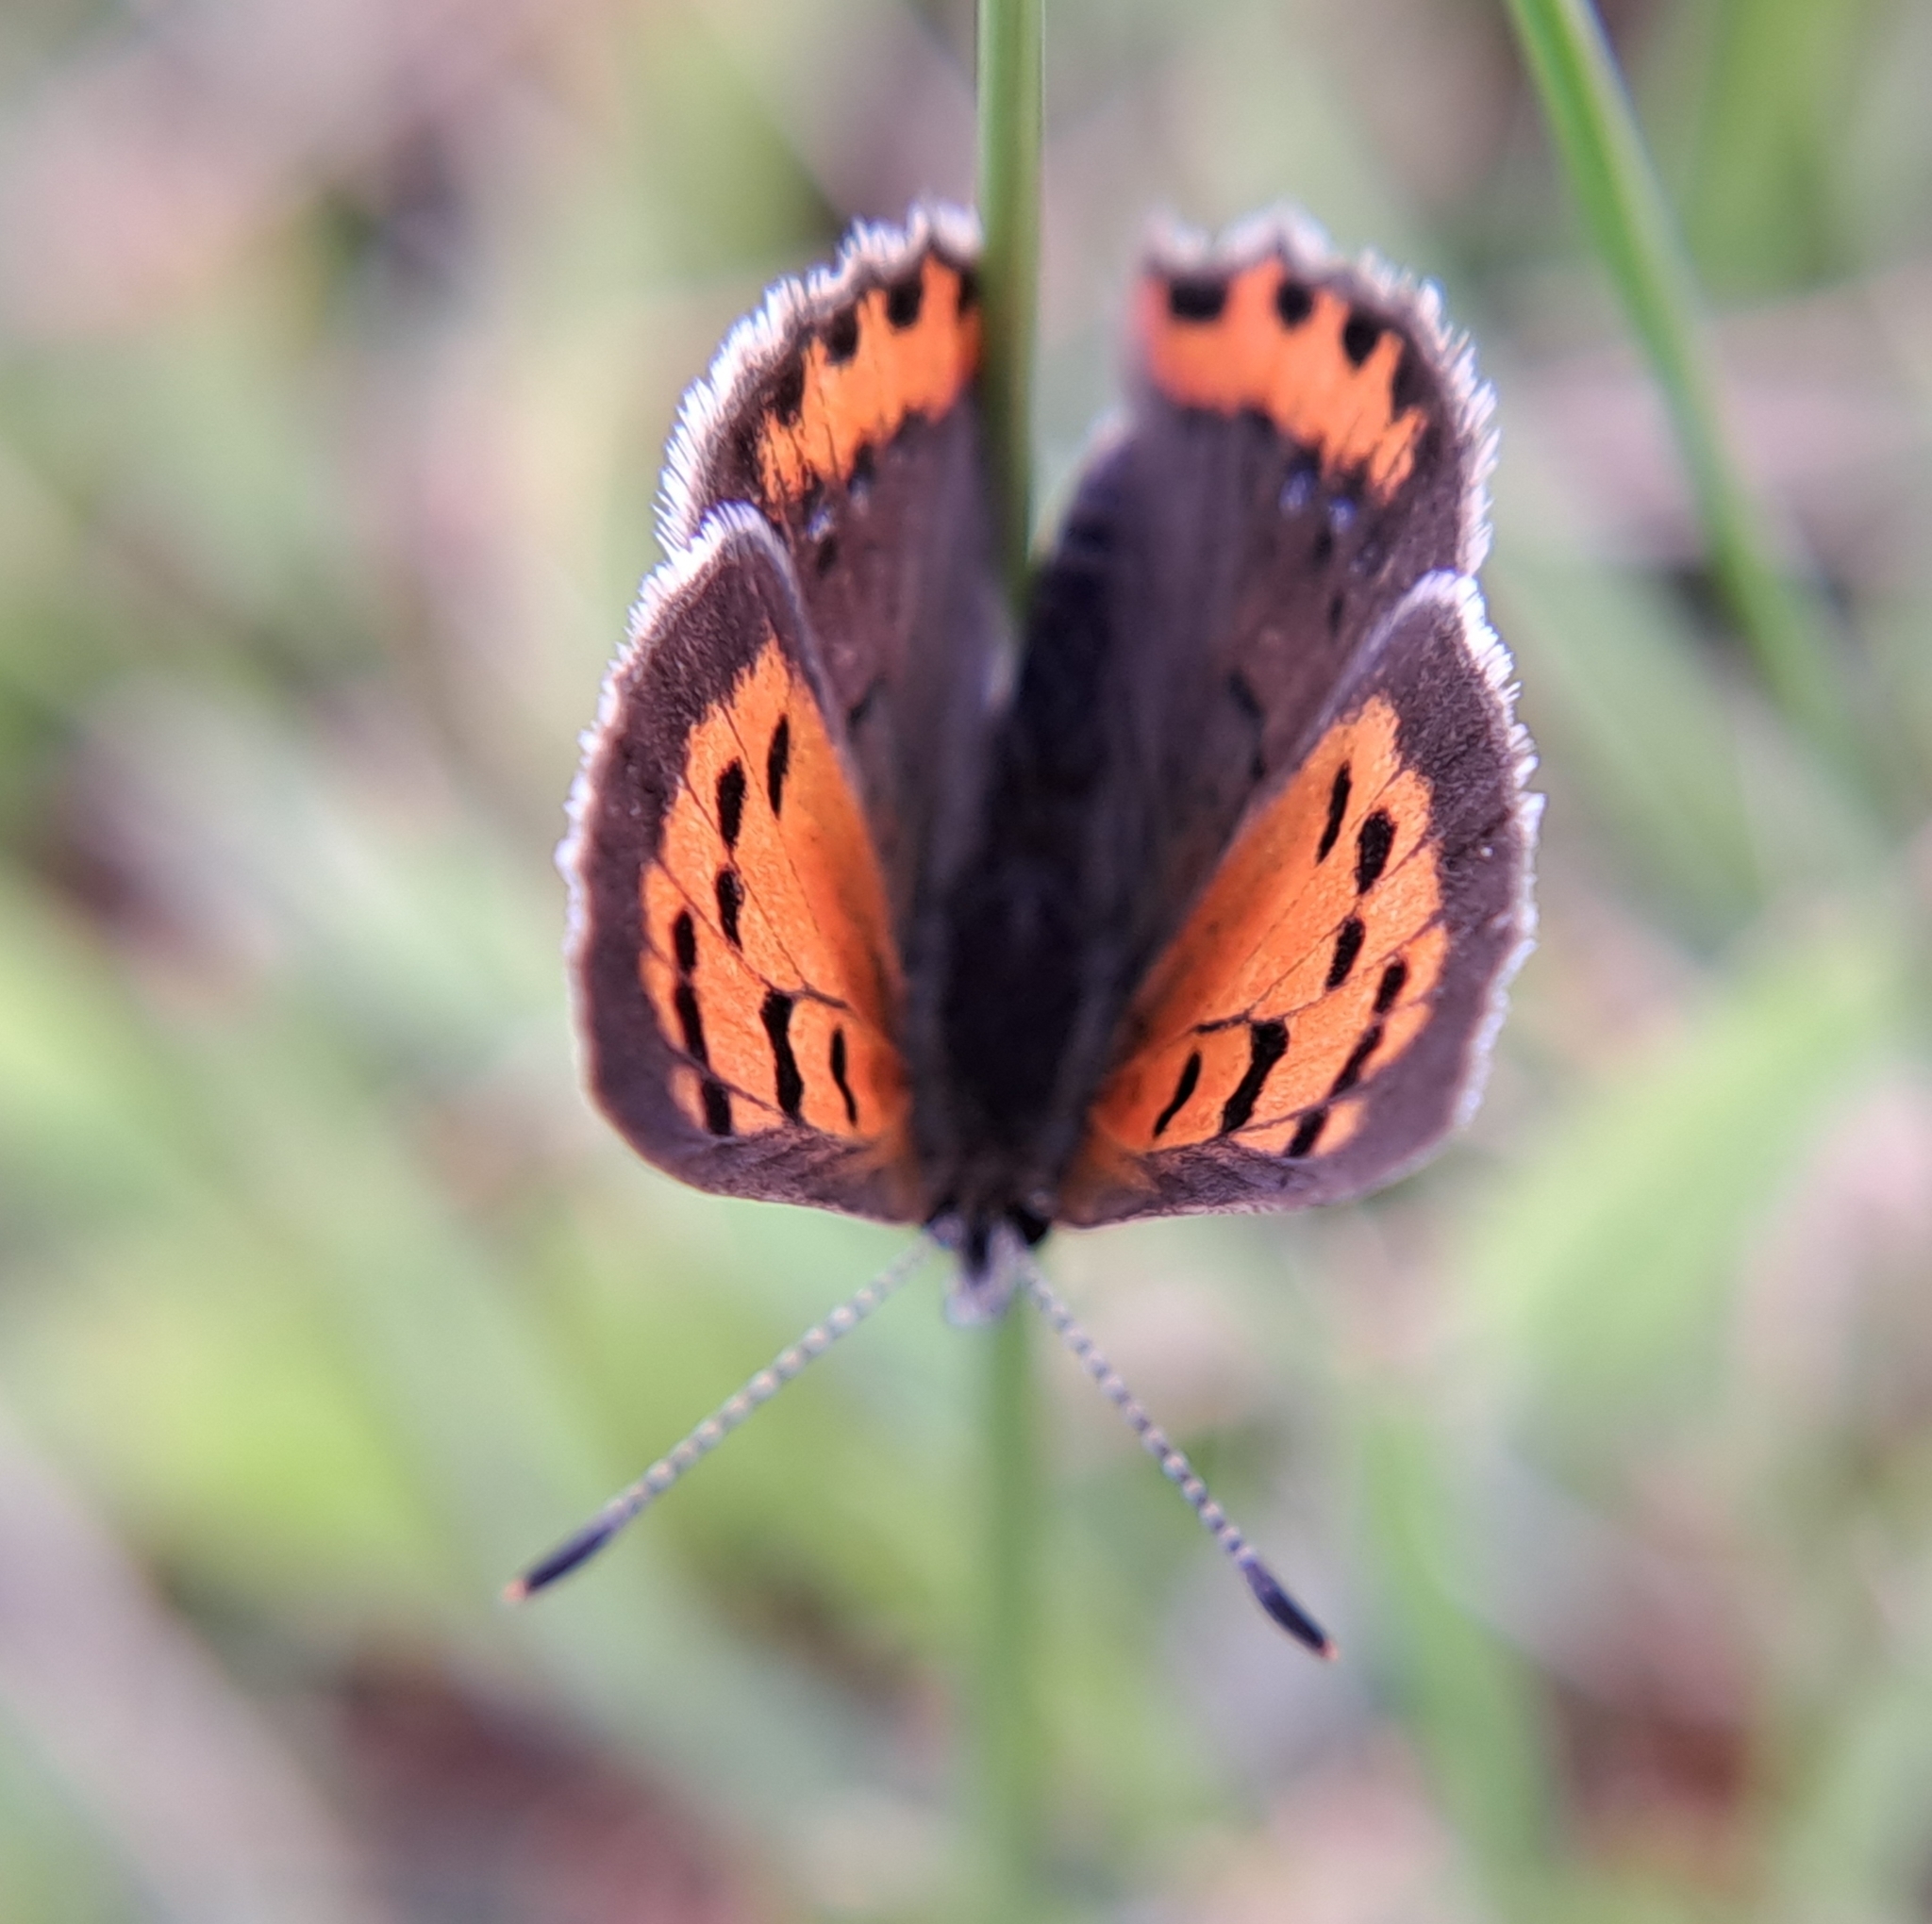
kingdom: Animalia
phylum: Arthropoda
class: Insecta
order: Lepidoptera
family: Lycaenidae
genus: Lycaena
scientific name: Lycaena hypophlaeas
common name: American copper
